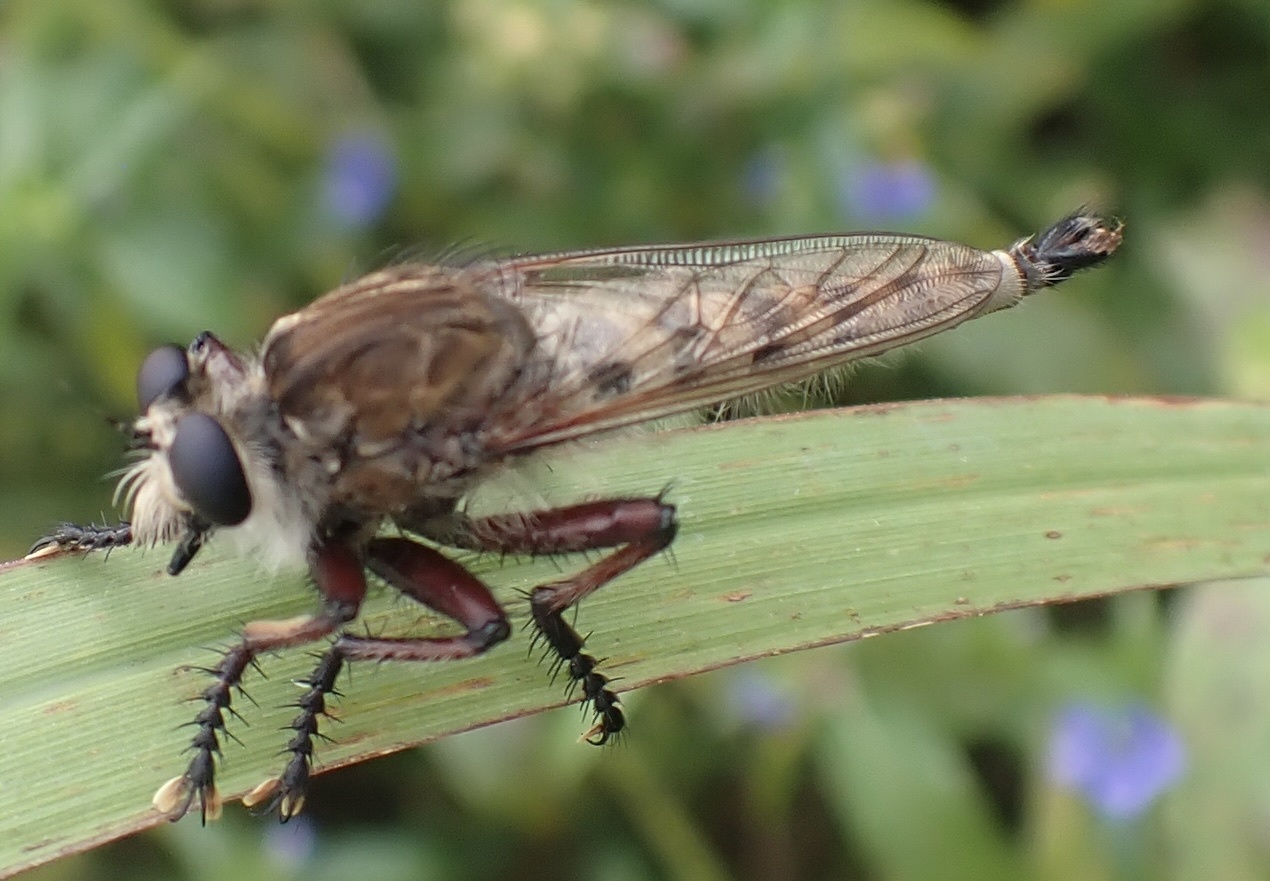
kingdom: Animalia
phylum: Arthropoda
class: Insecta
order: Diptera
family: Asilidae
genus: Promachus
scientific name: Promachus hinei
